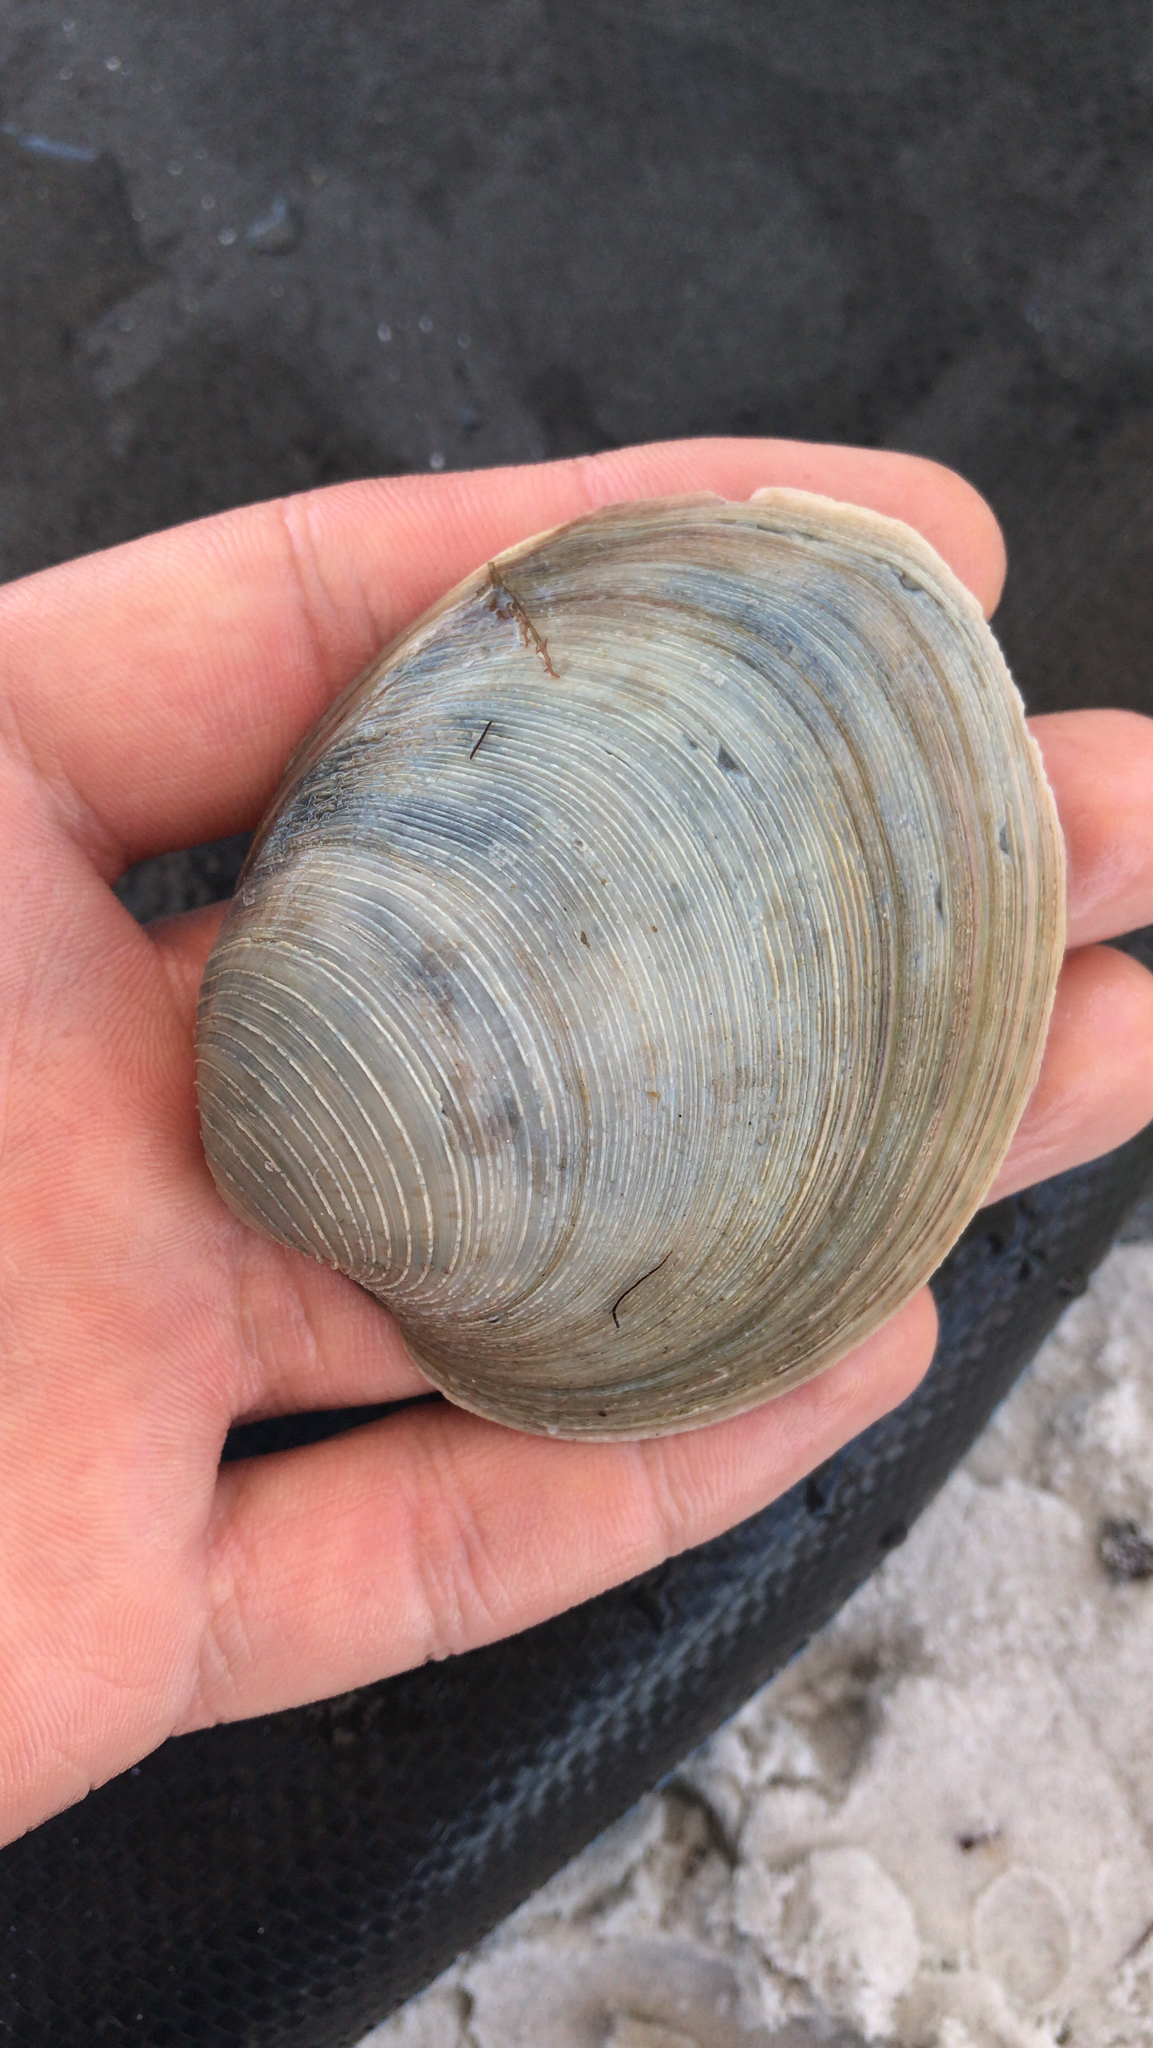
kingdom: Animalia
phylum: Mollusca
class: Bivalvia
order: Venerida
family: Veneridae
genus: Mercenaria
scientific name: Mercenaria campechiensis
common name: Südliche quahog-muschel
